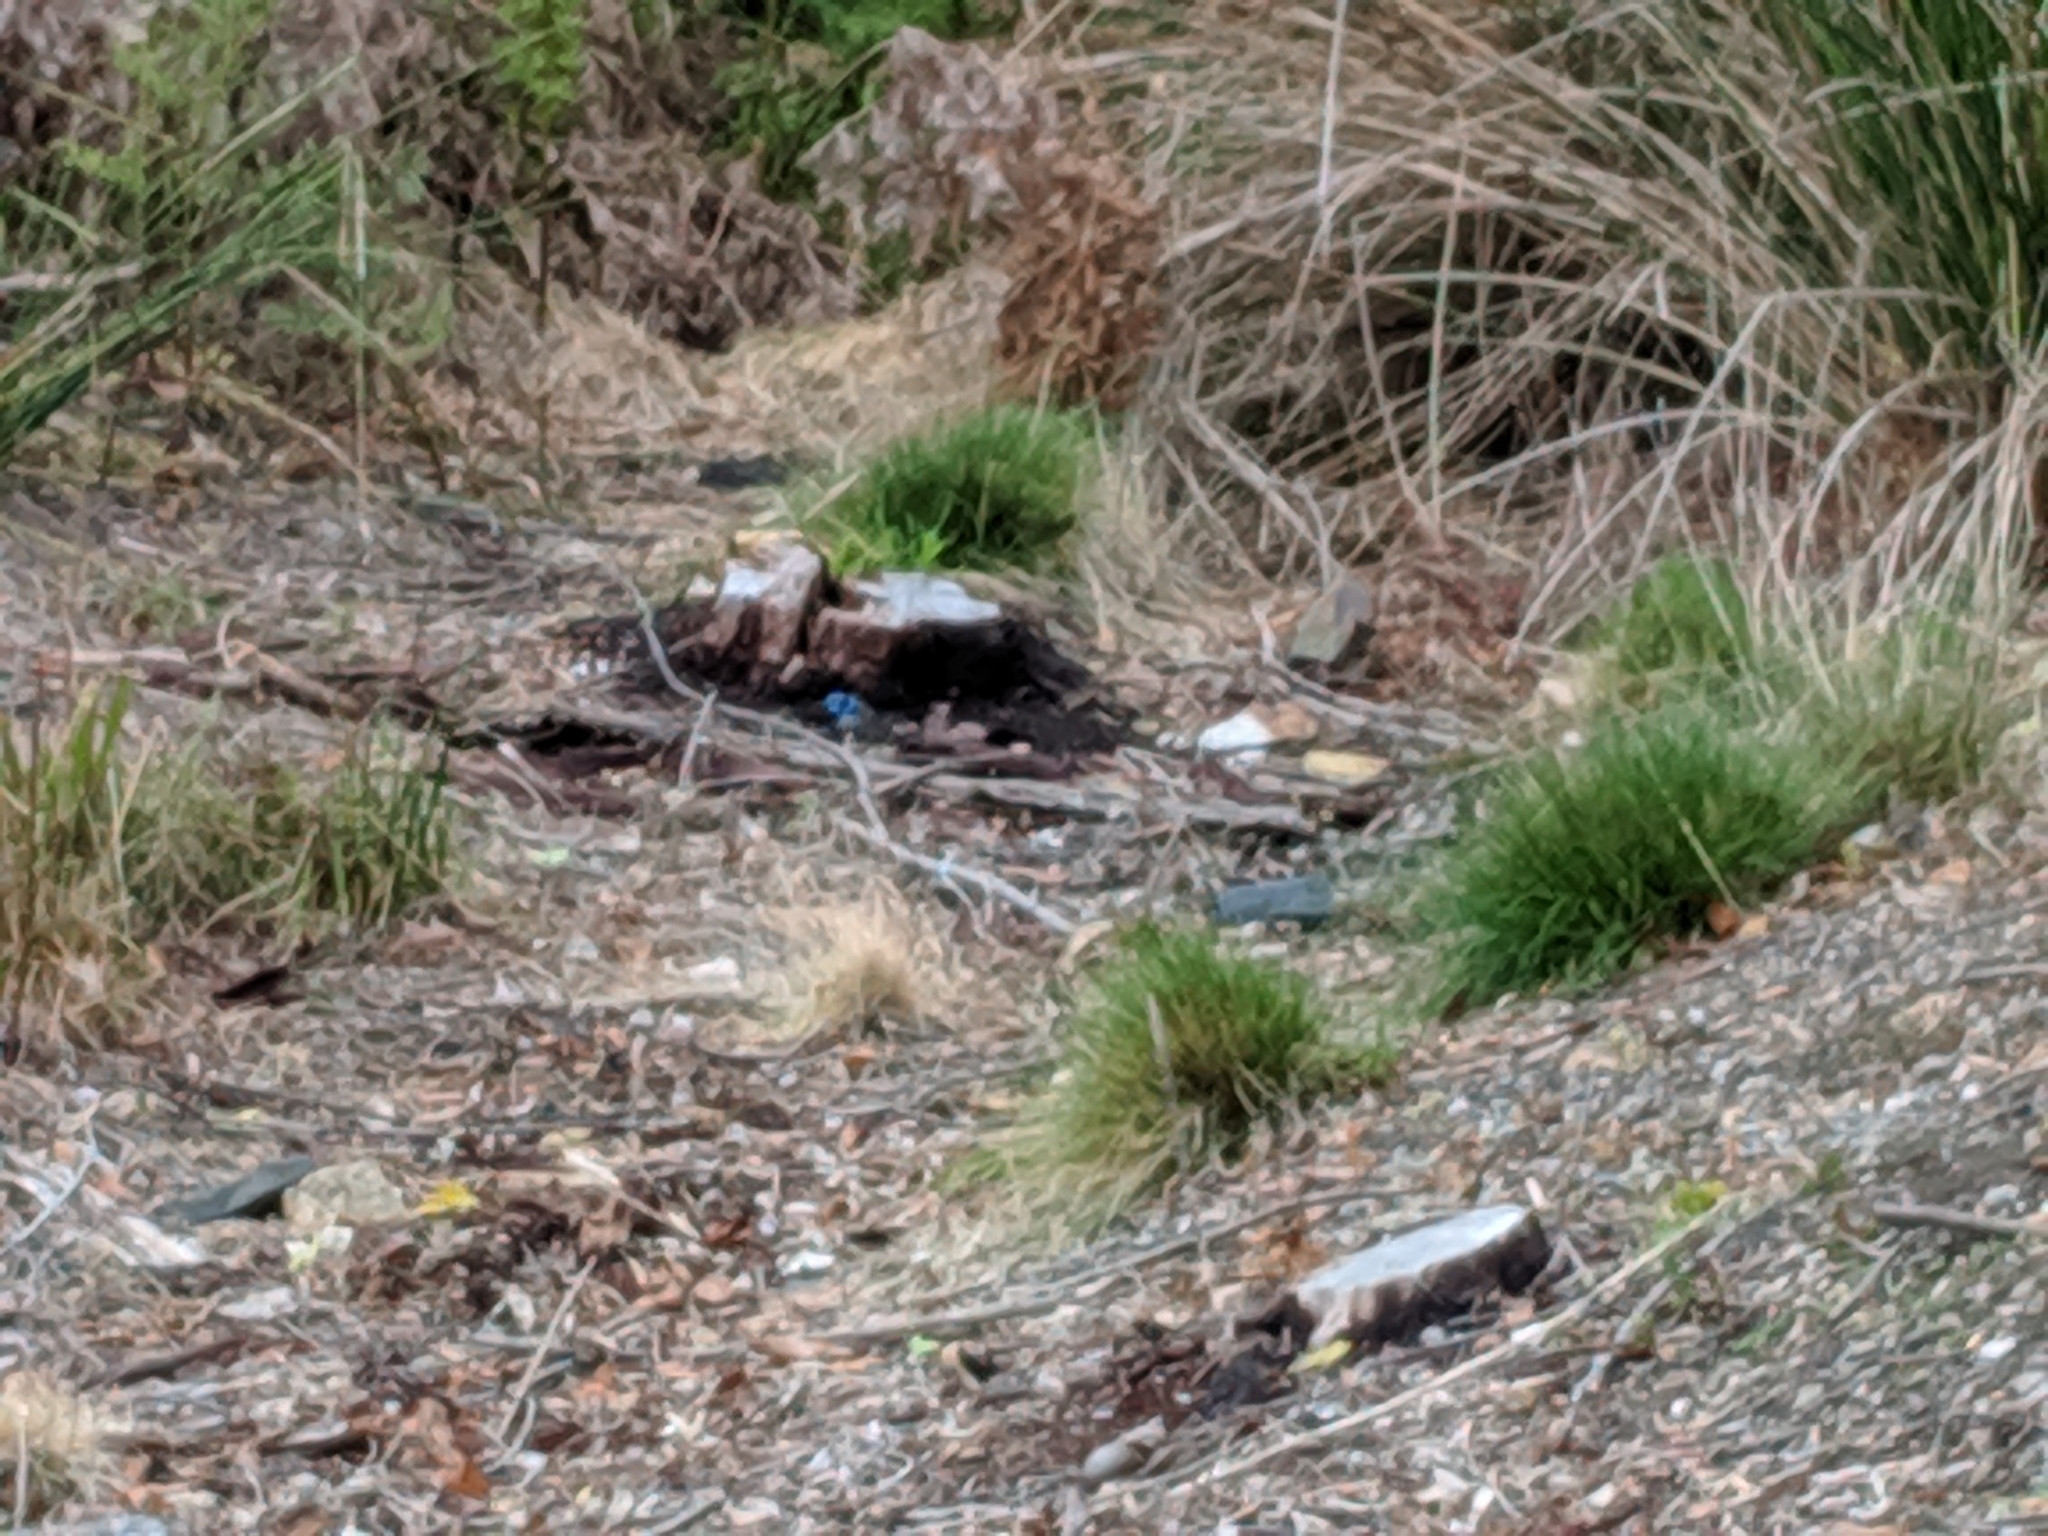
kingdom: Animalia
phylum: Chordata
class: Aves
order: Passeriformes
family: Maluridae
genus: Malurus
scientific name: Malurus cyaneus
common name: Superb fairywren
